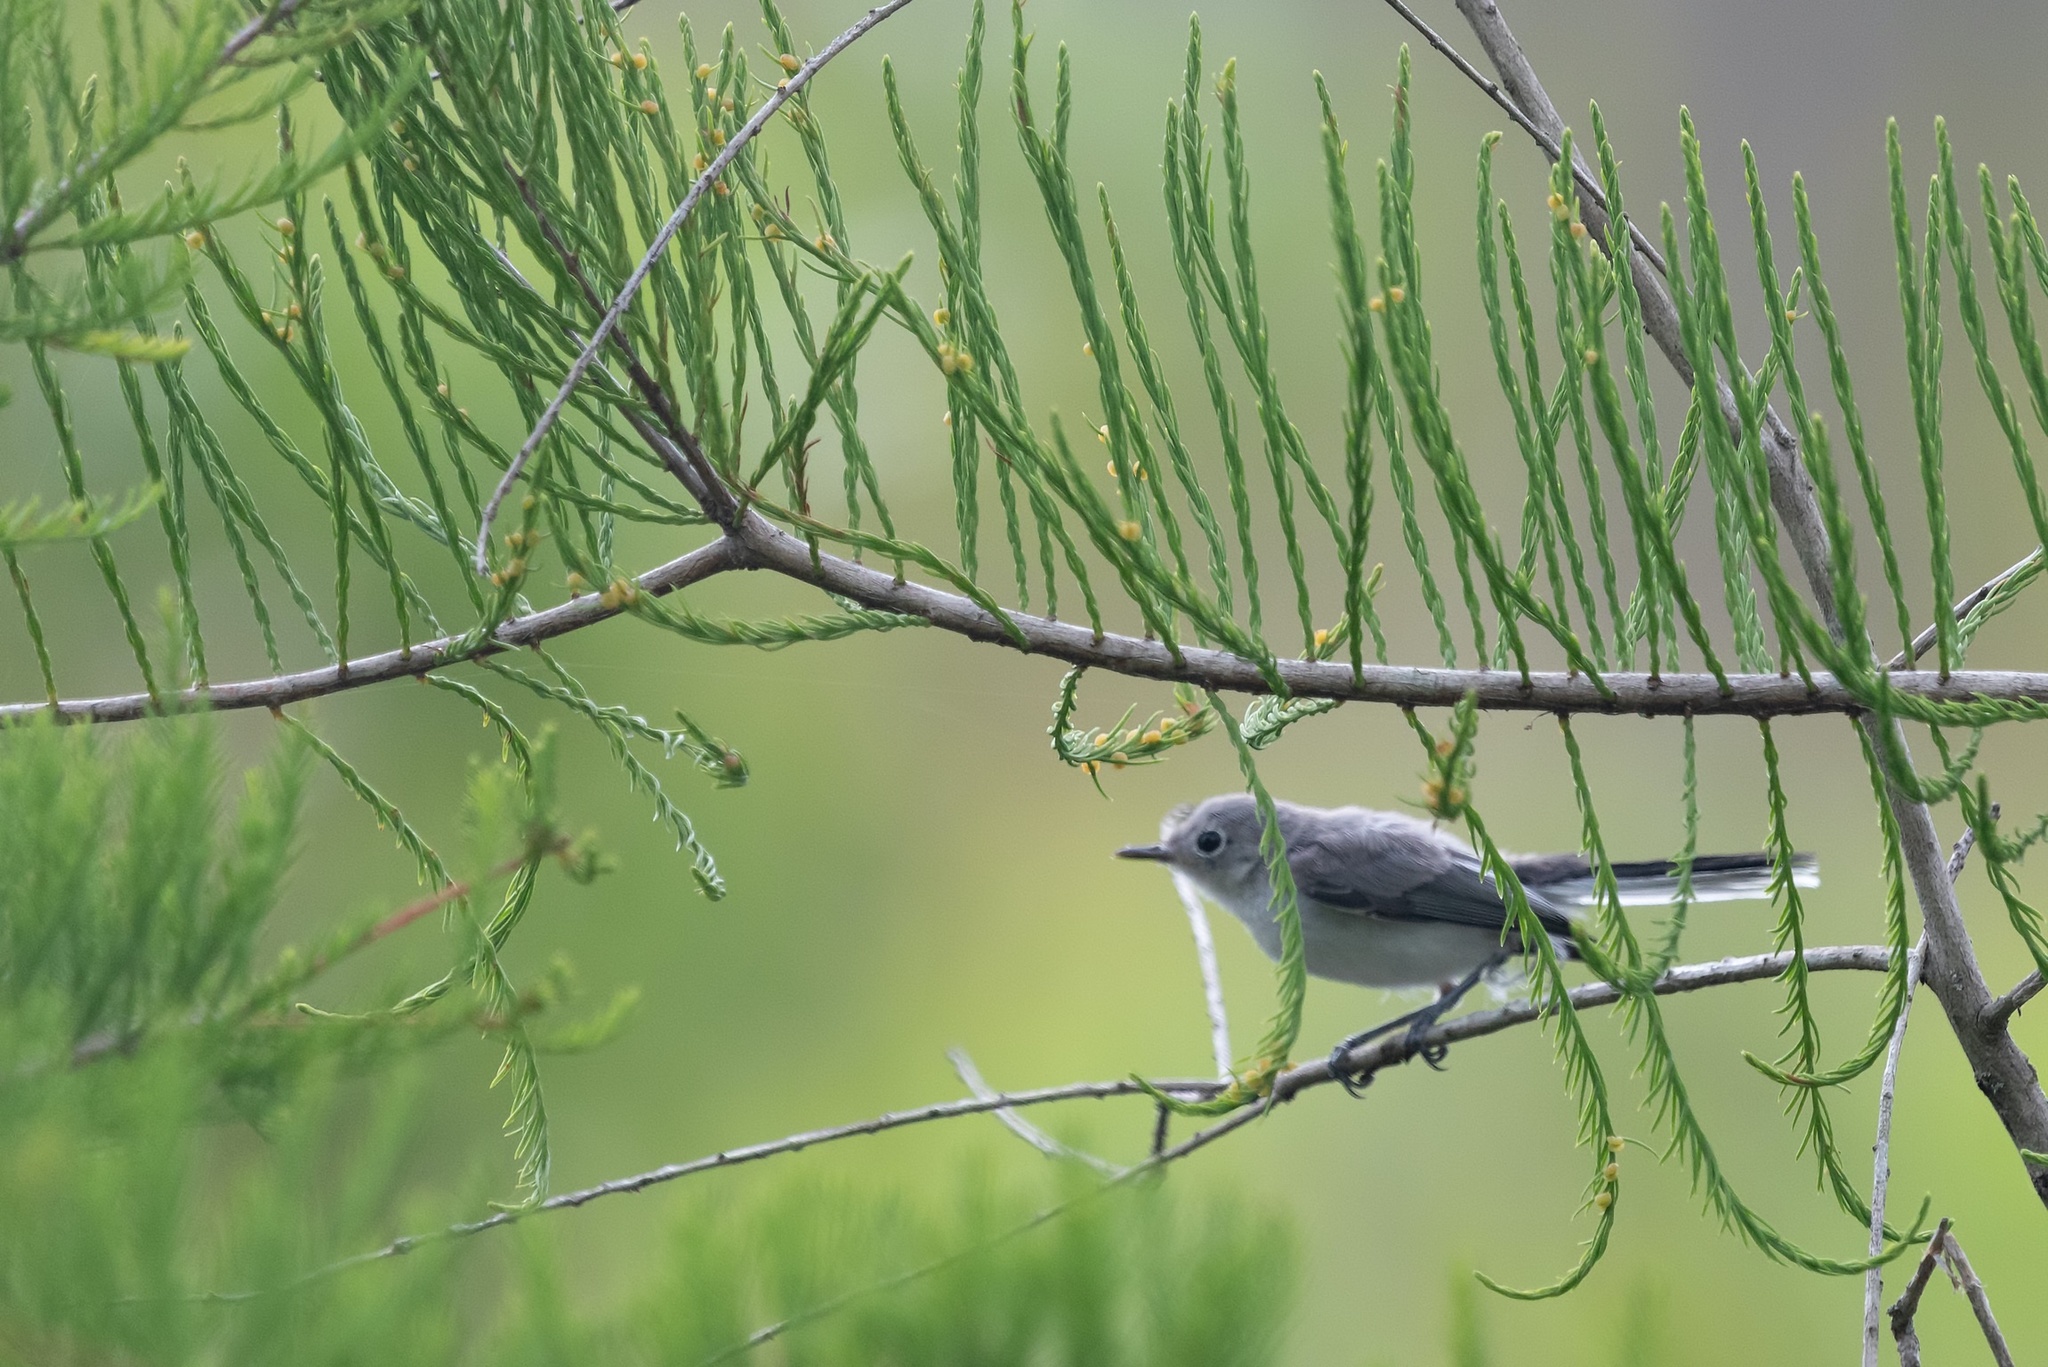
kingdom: Animalia
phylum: Chordata
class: Aves
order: Passeriformes
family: Polioptilidae
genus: Polioptila
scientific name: Polioptila caerulea
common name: Blue-gray gnatcatcher
